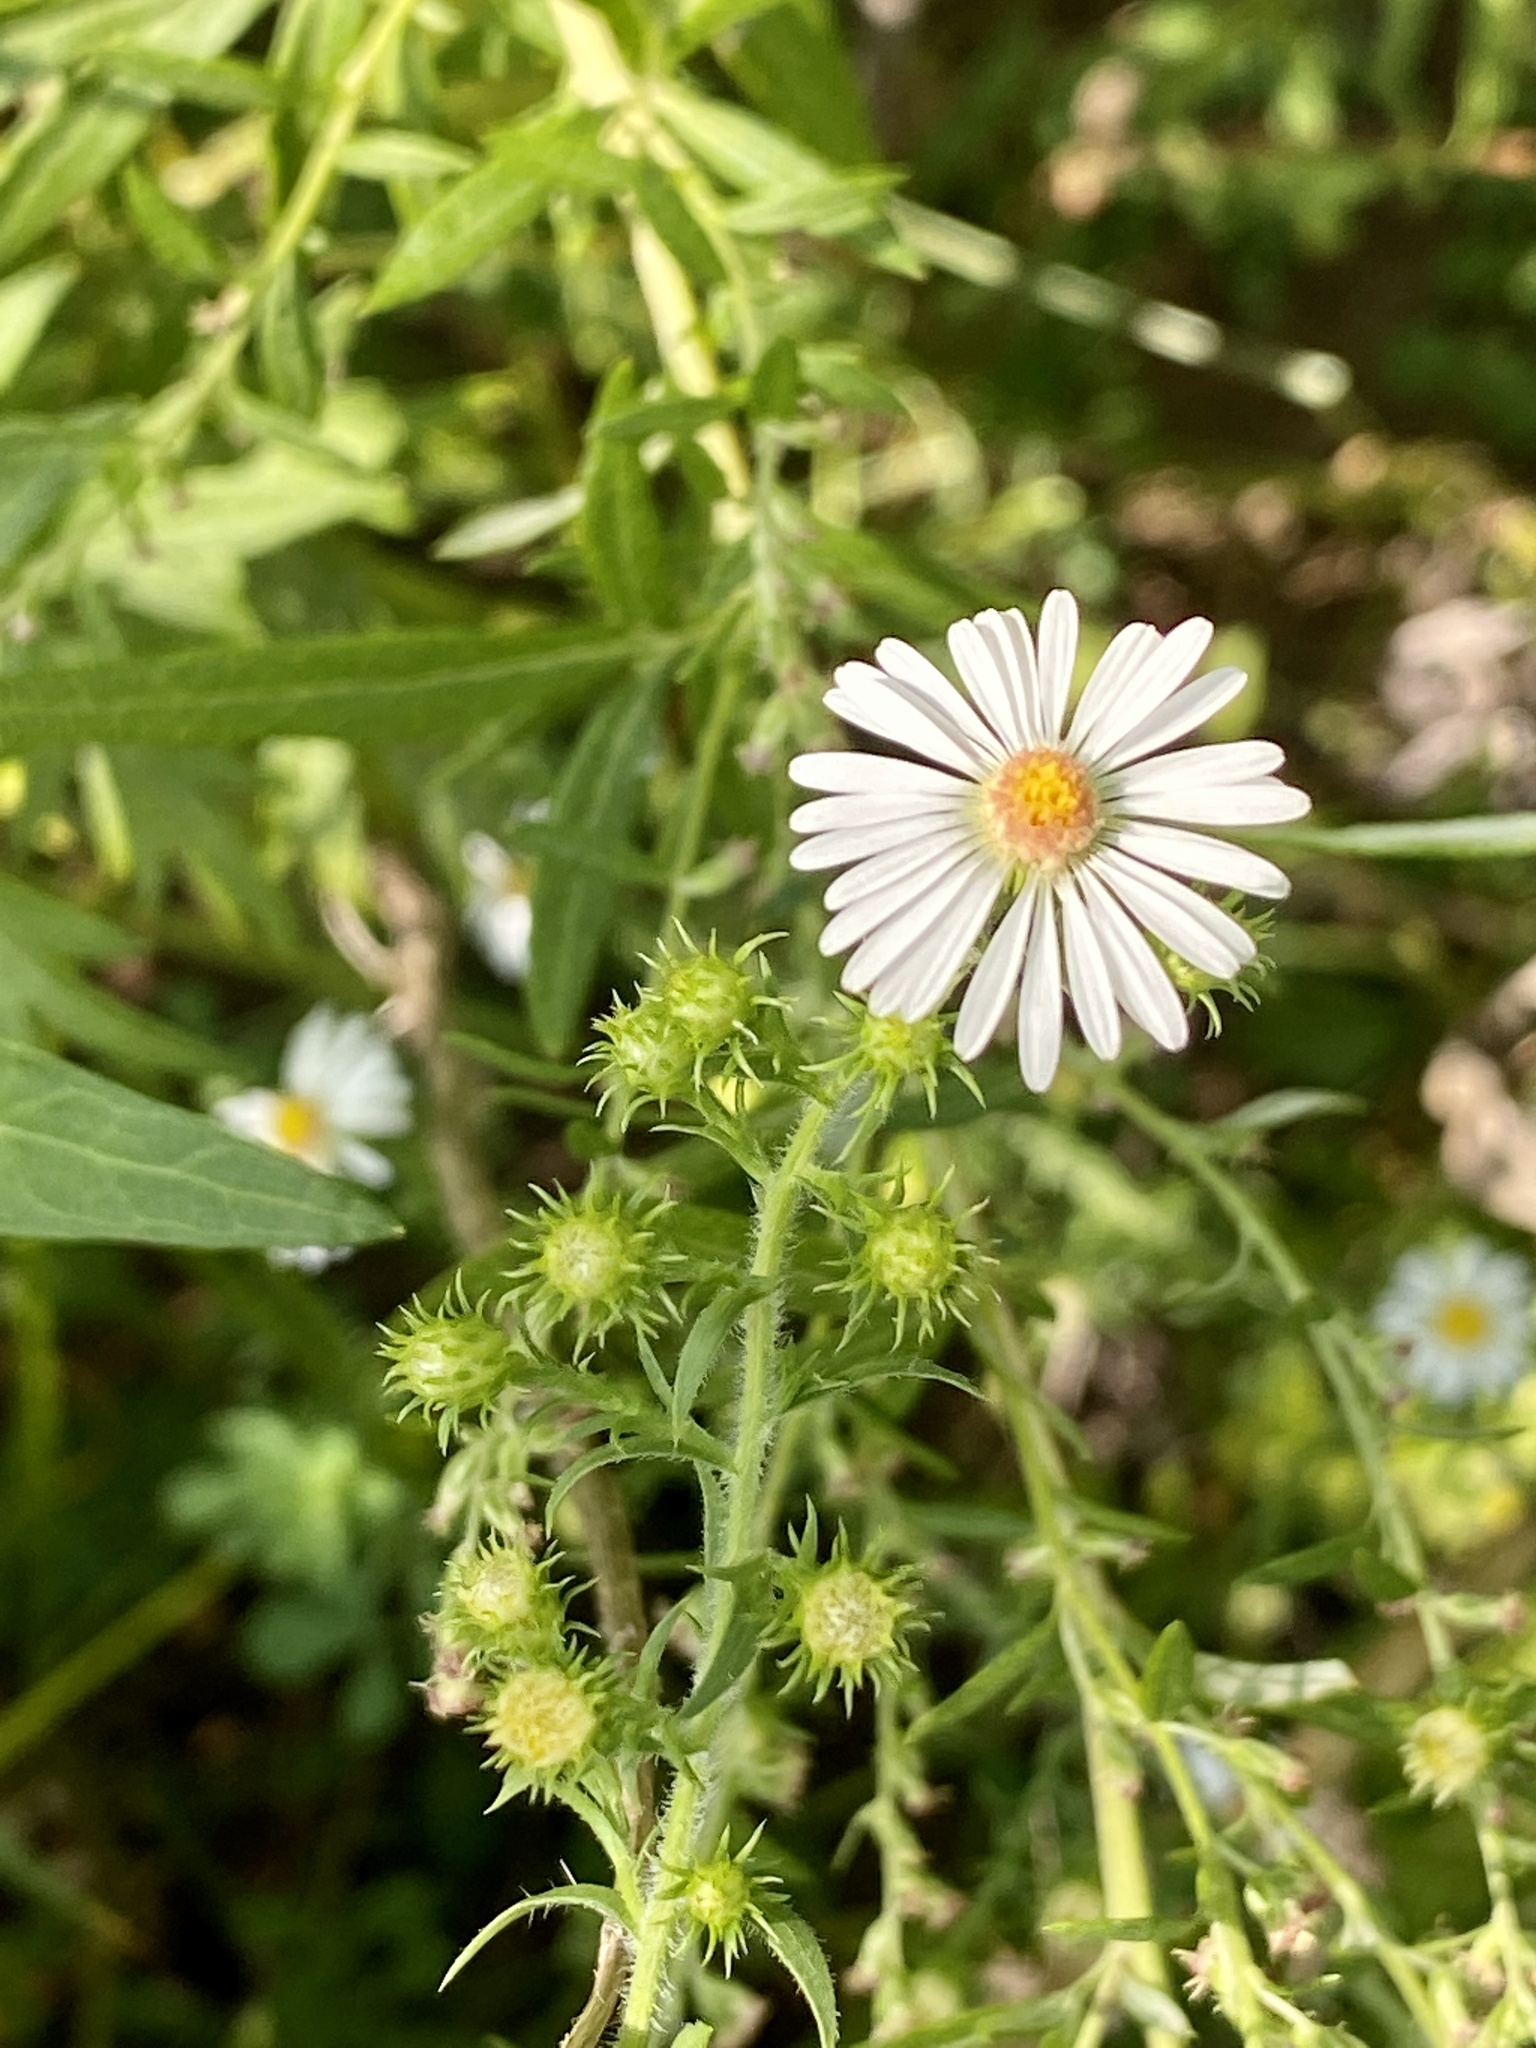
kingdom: Plantae
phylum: Tracheophyta
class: Magnoliopsida
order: Asterales
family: Asteraceae
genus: Symphyotrichum
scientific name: Symphyotrichum pilosum
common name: Awl aster
